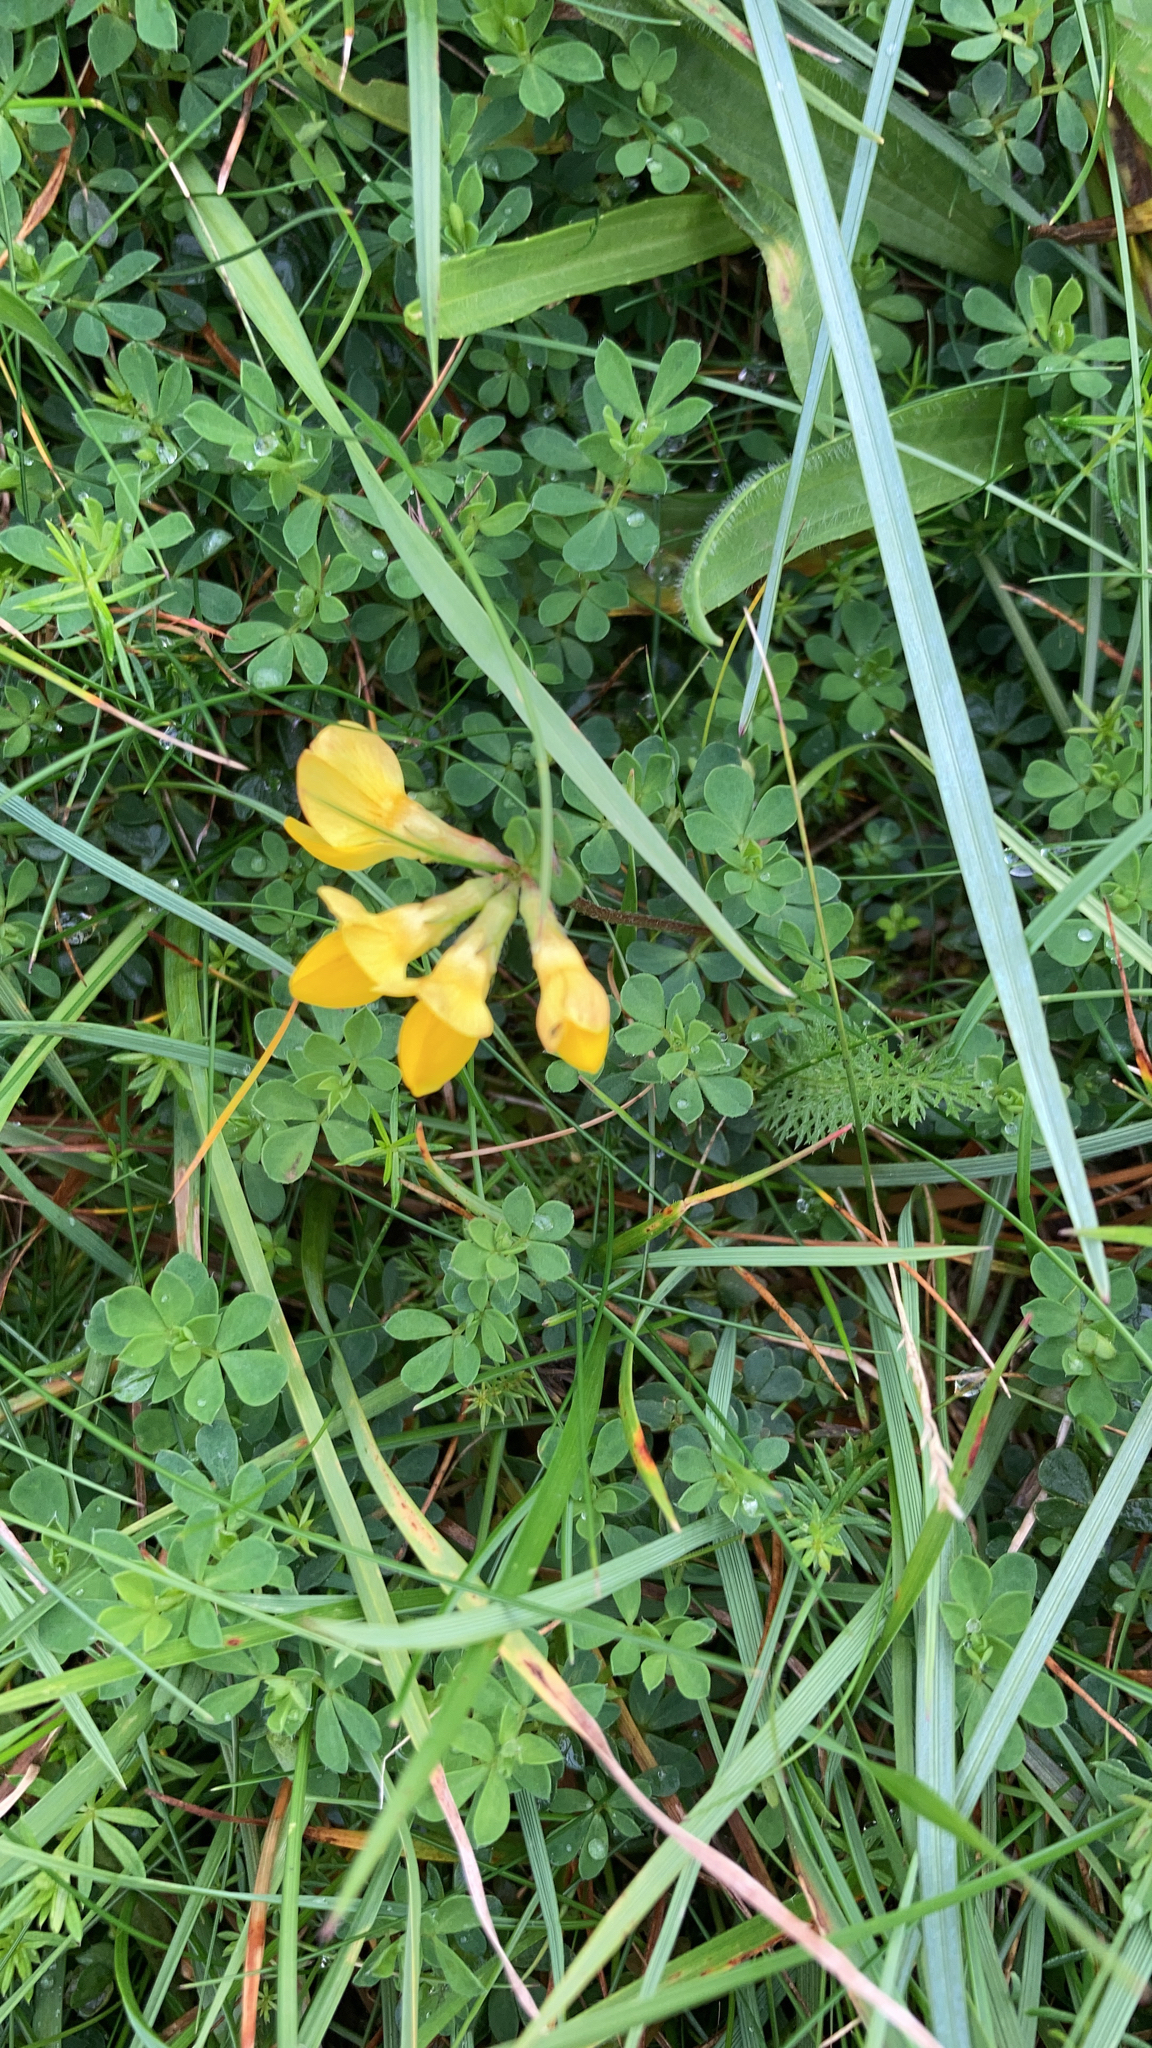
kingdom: Plantae
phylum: Tracheophyta
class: Magnoliopsida
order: Fabales
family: Fabaceae
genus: Lotus
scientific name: Lotus corniculatus
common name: Common bird's-foot-trefoil
